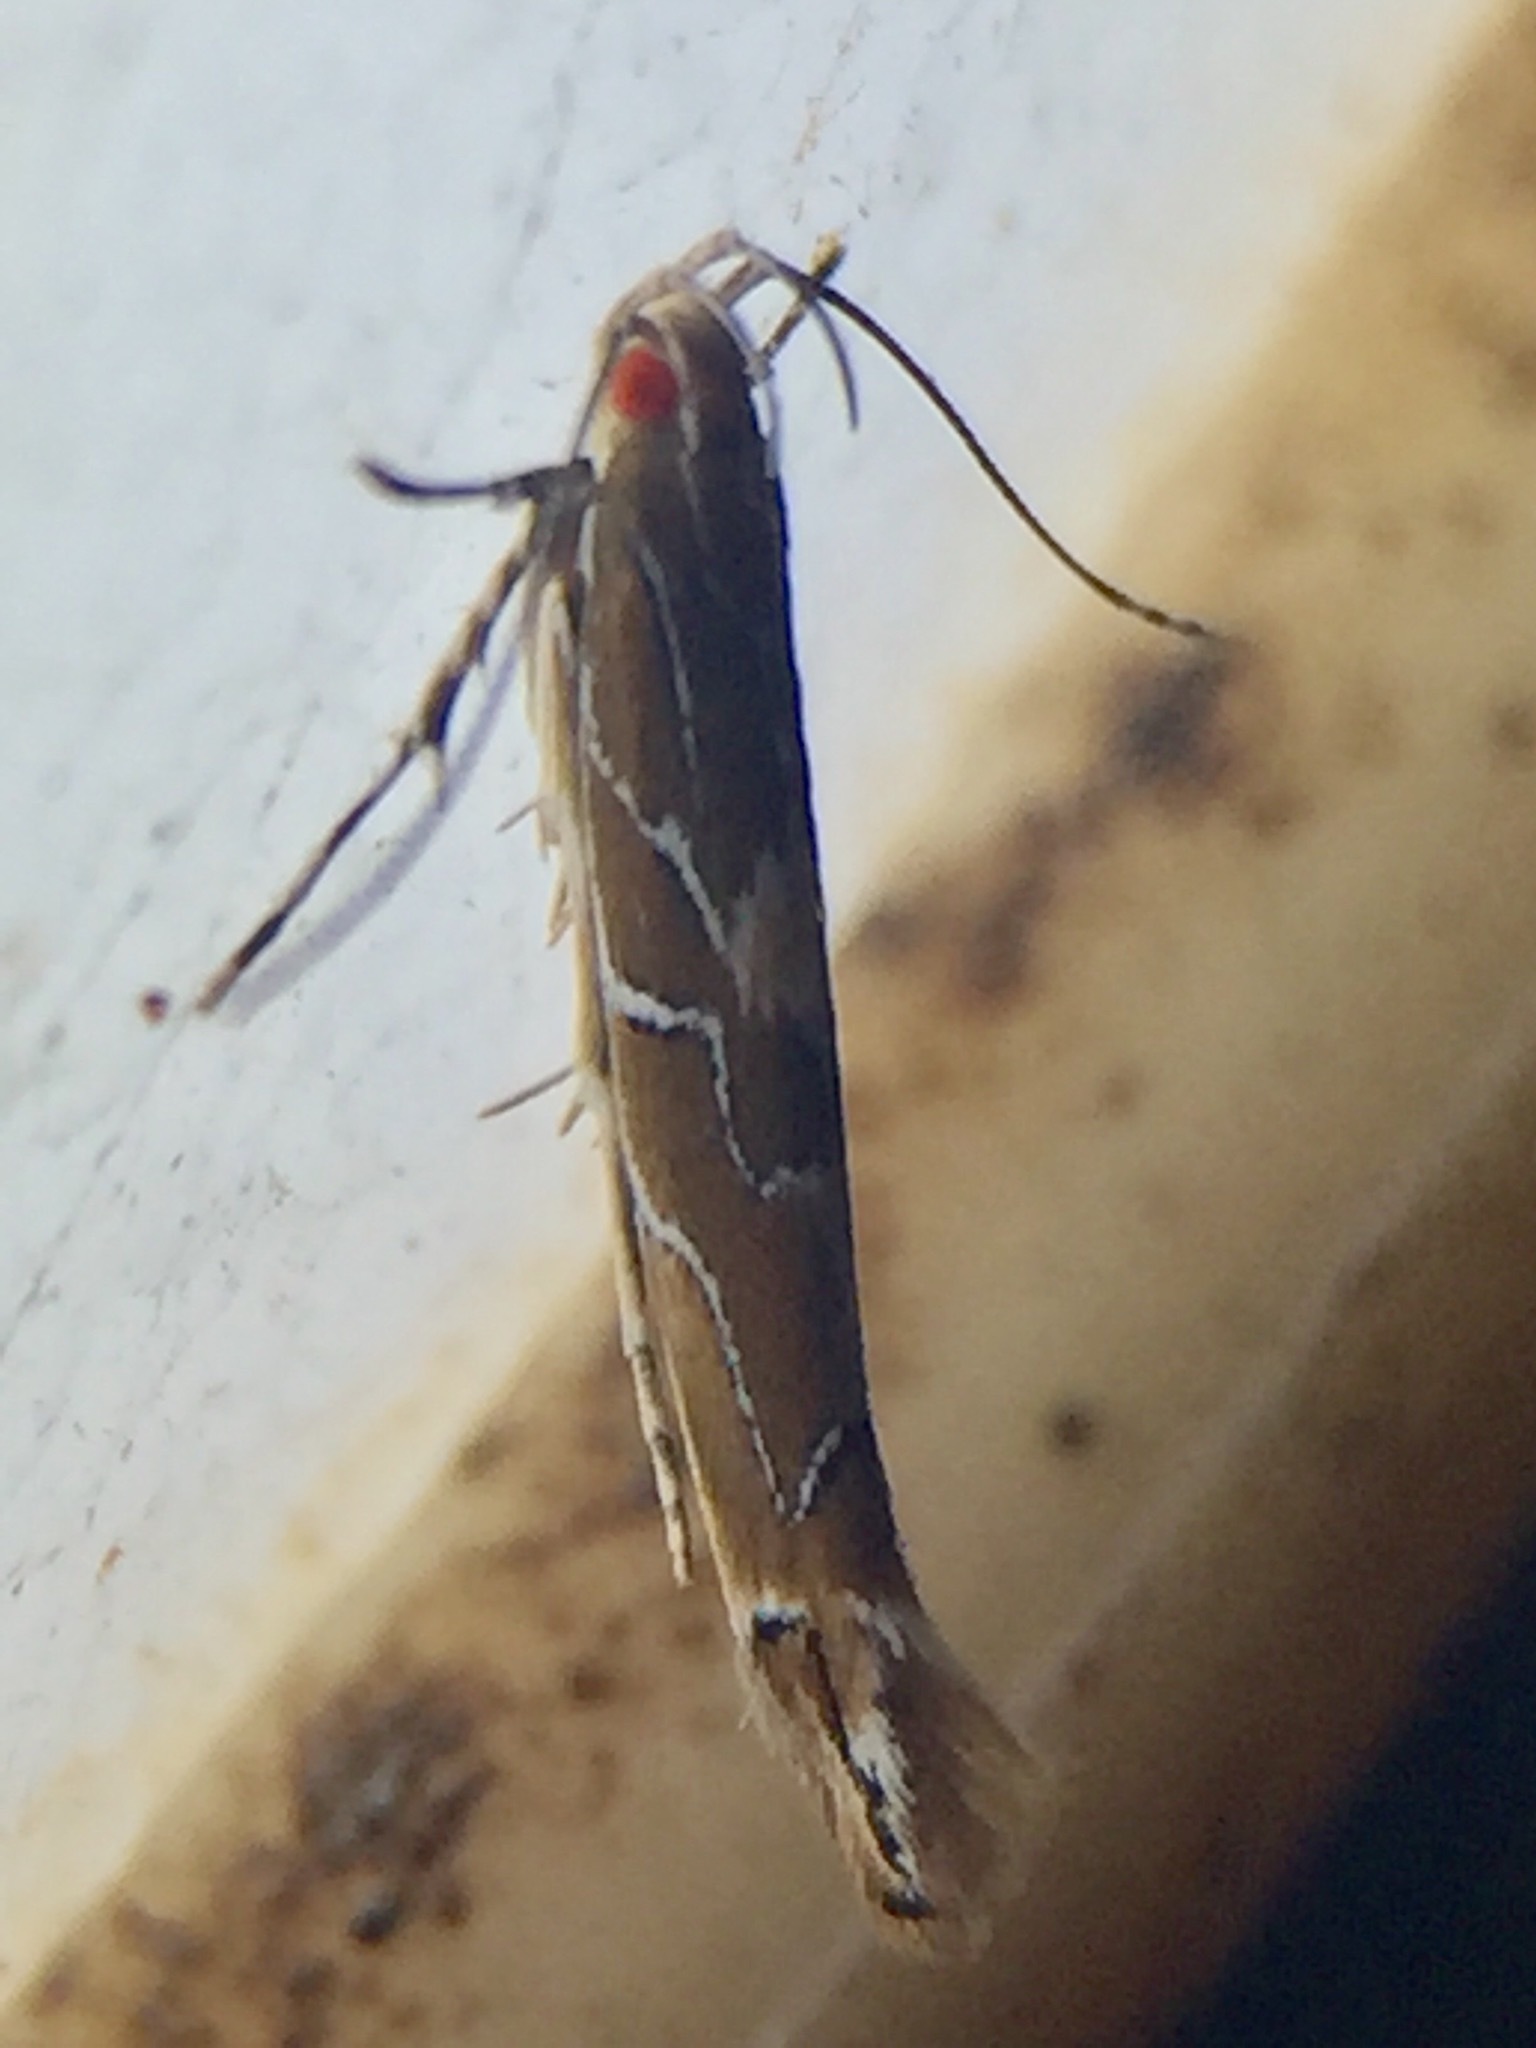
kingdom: Animalia
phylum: Arthropoda
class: Insecta
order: Lepidoptera
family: Cosmopterigidae
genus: Pyroderces
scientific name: Pyroderces apparitella
